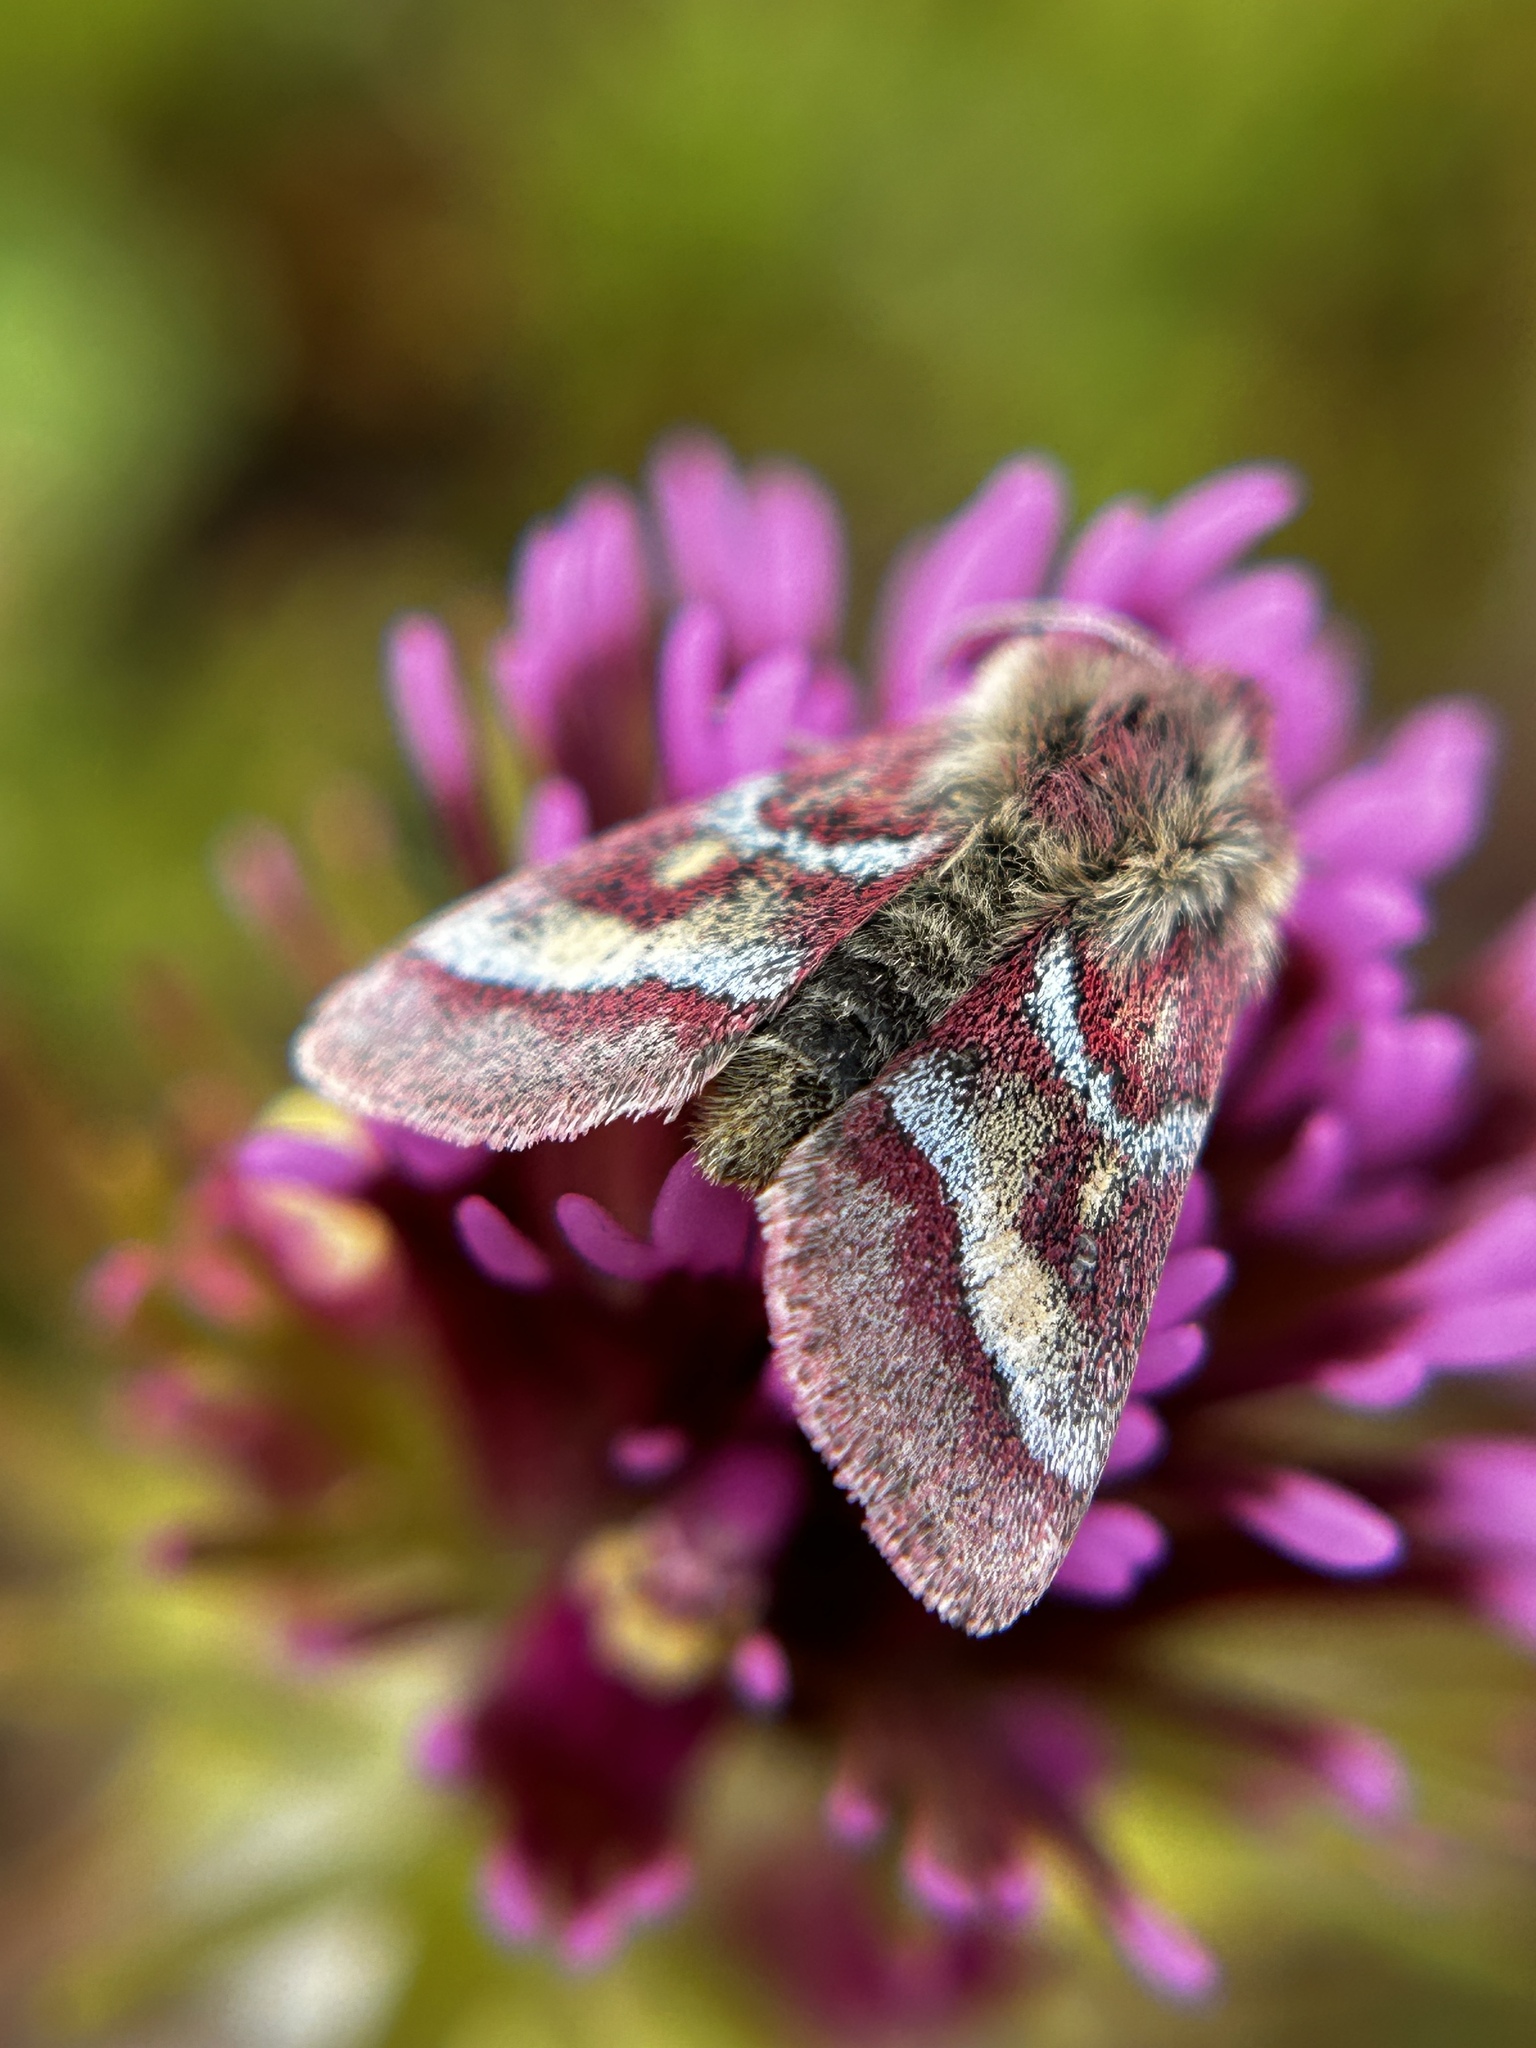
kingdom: Animalia
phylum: Arthropoda
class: Insecta
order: Lepidoptera
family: Noctuidae
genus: Schinia
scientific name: Schinia pulchripennis
